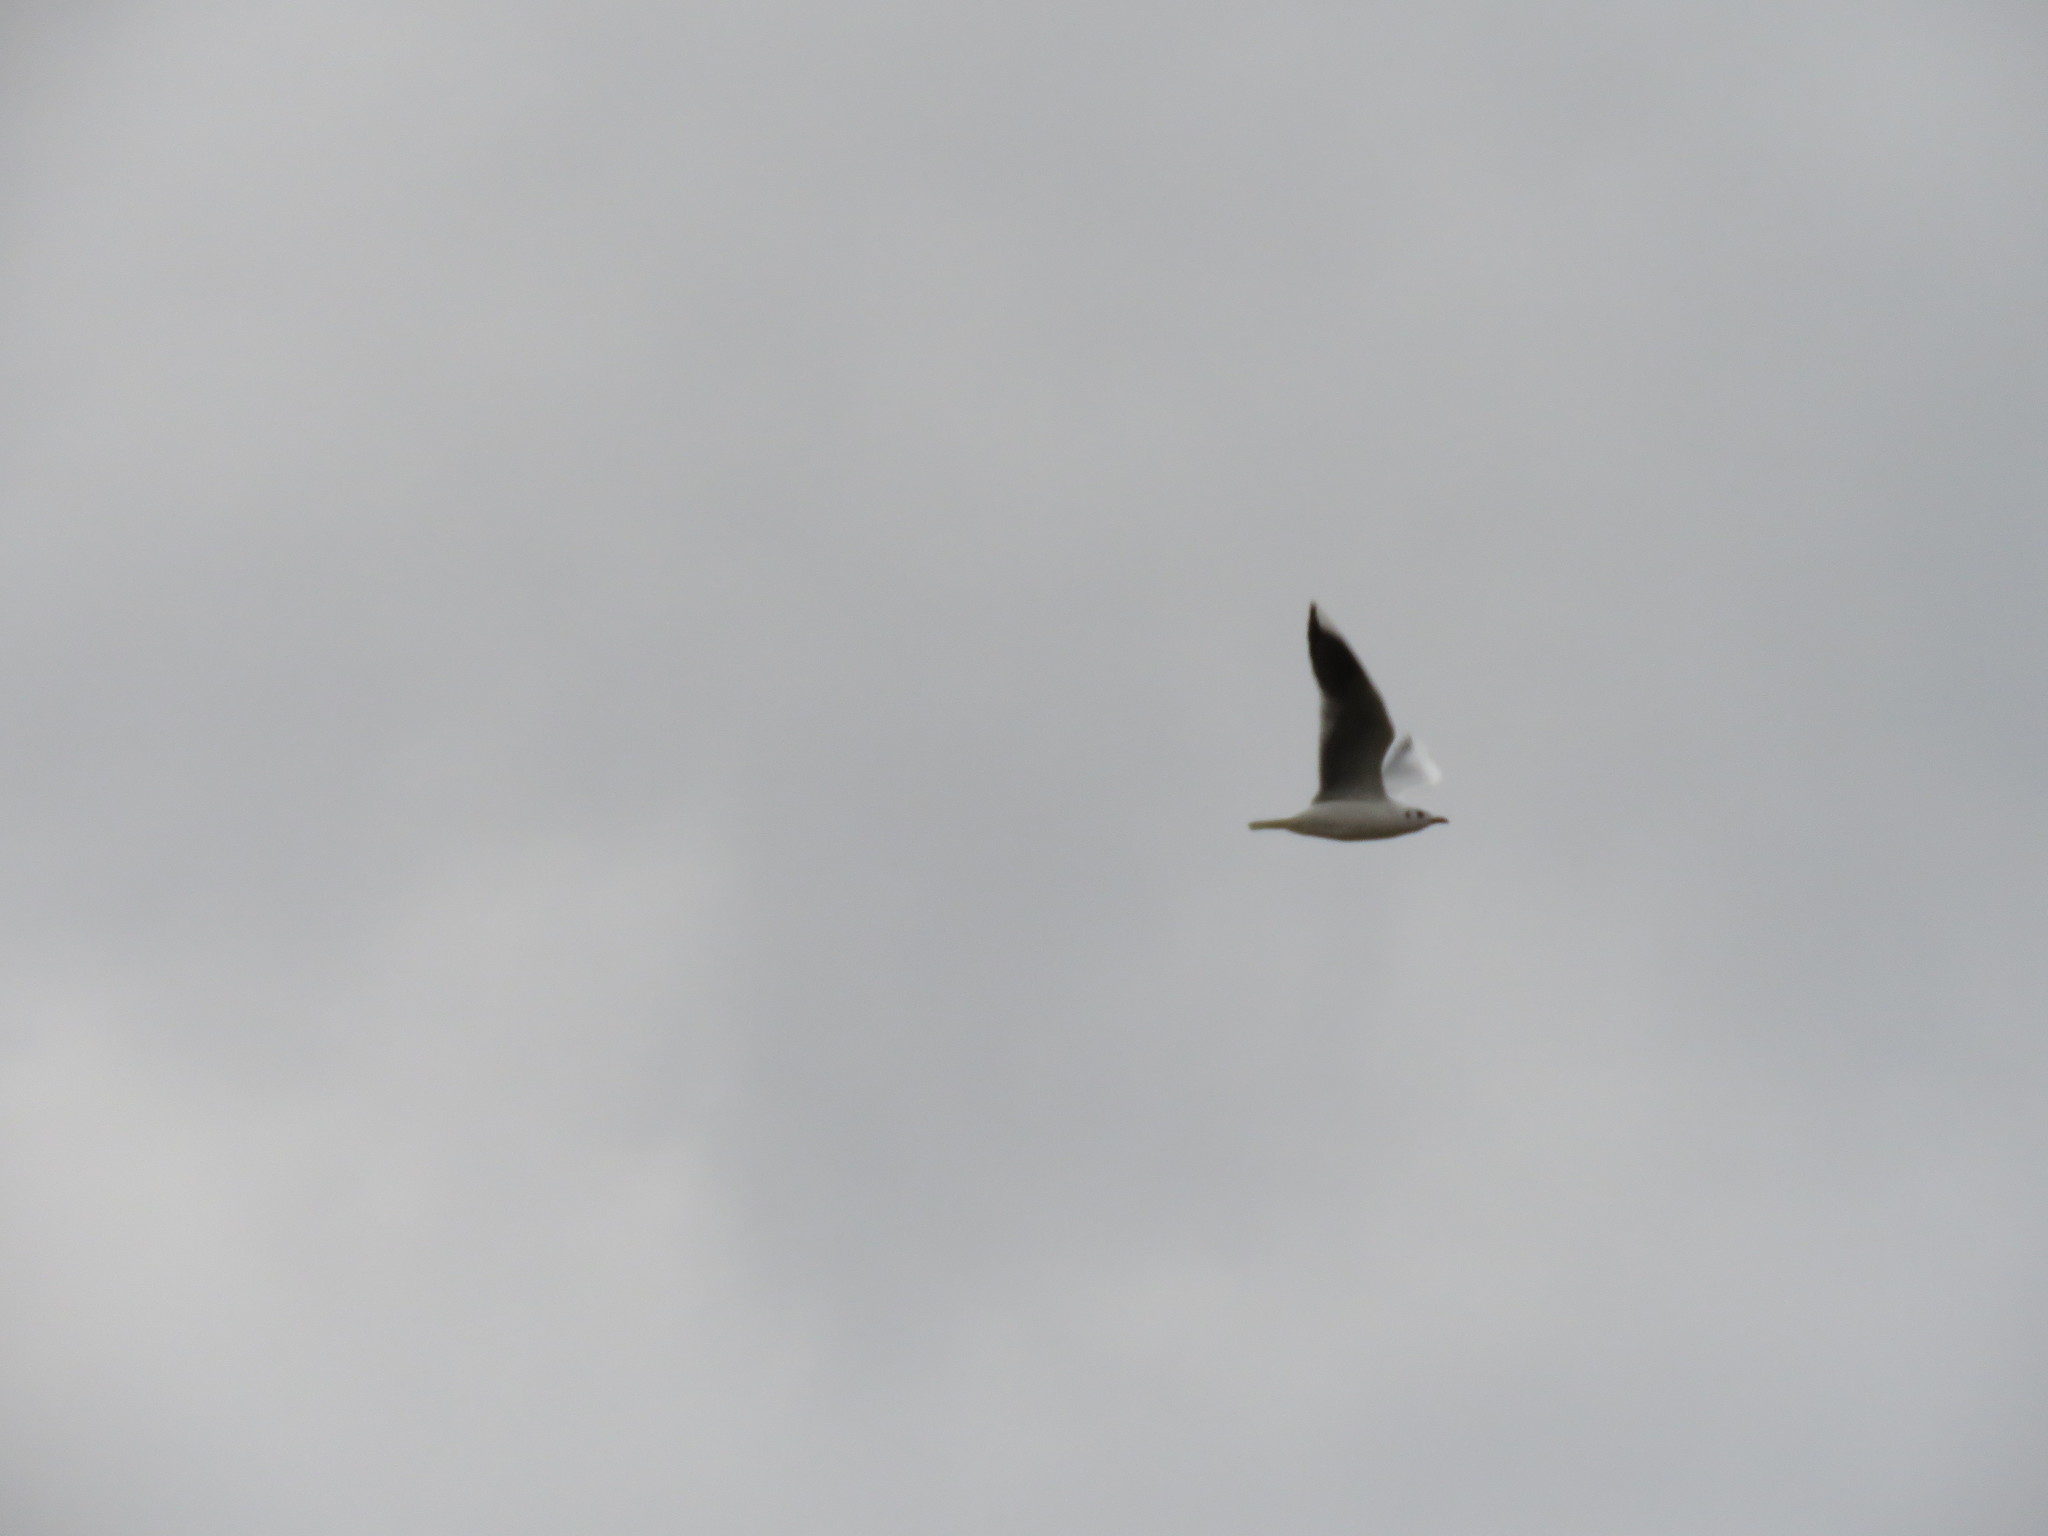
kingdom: Animalia
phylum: Chordata
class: Aves
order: Charadriiformes
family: Laridae
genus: Chroicocephalus
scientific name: Chroicocephalus maculipennis
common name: Brown-hooded gull
